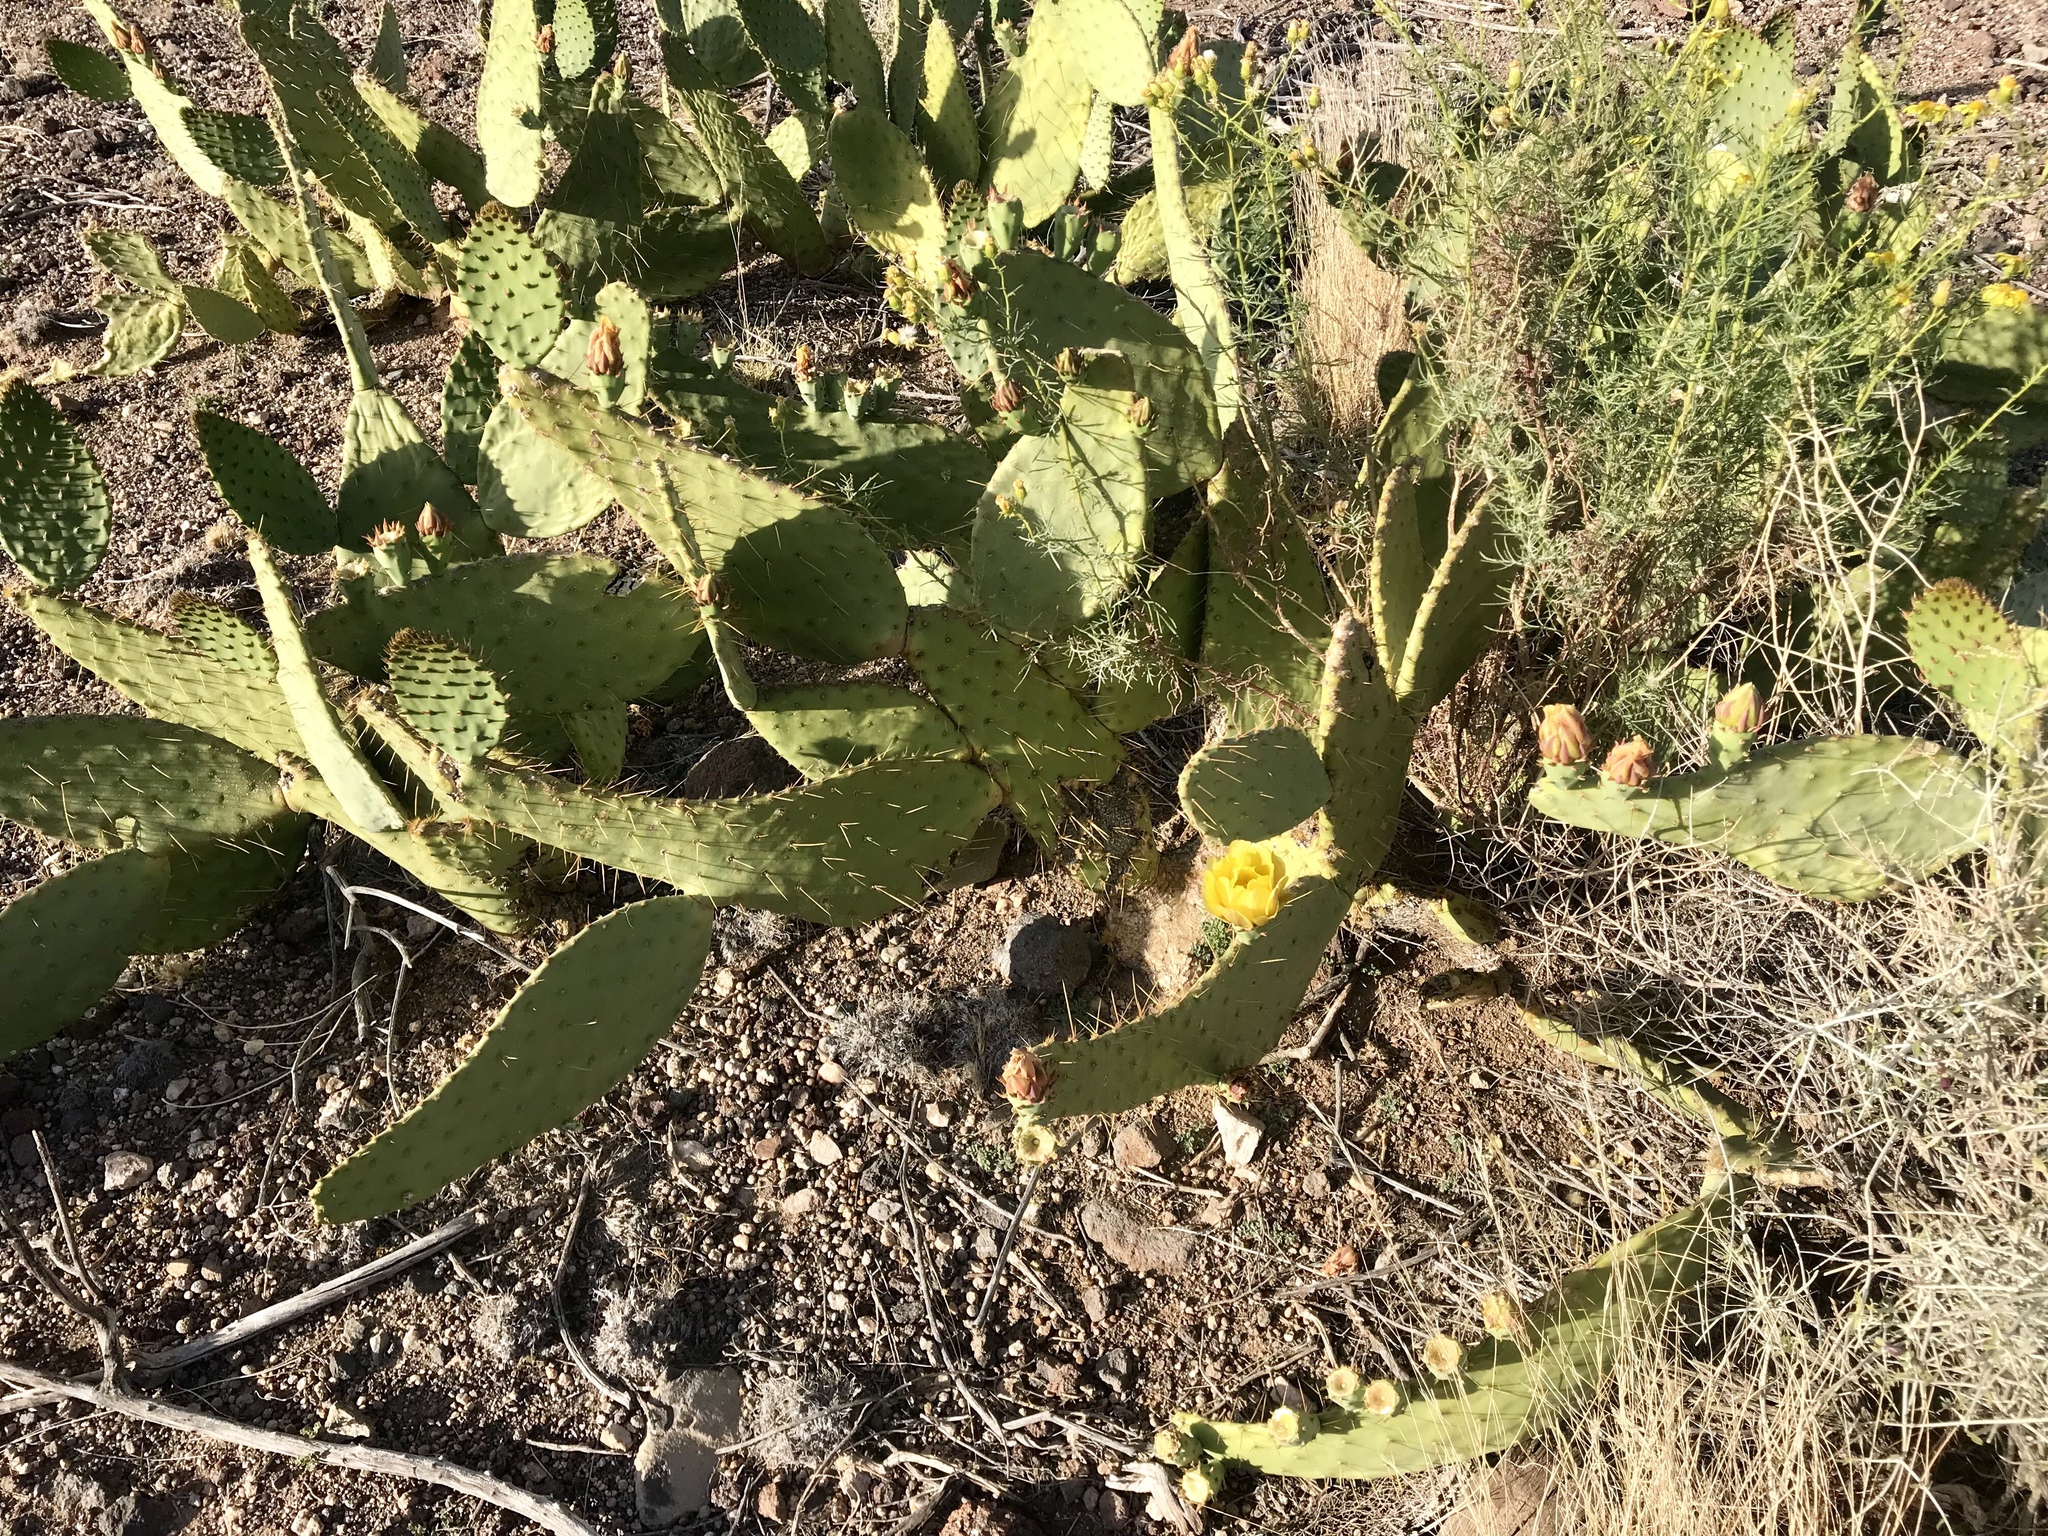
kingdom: Plantae
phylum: Tracheophyta
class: Magnoliopsida
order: Caryophyllales
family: Cactaceae
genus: Opuntia
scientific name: Opuntia engelmannii
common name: Cactus-apple
